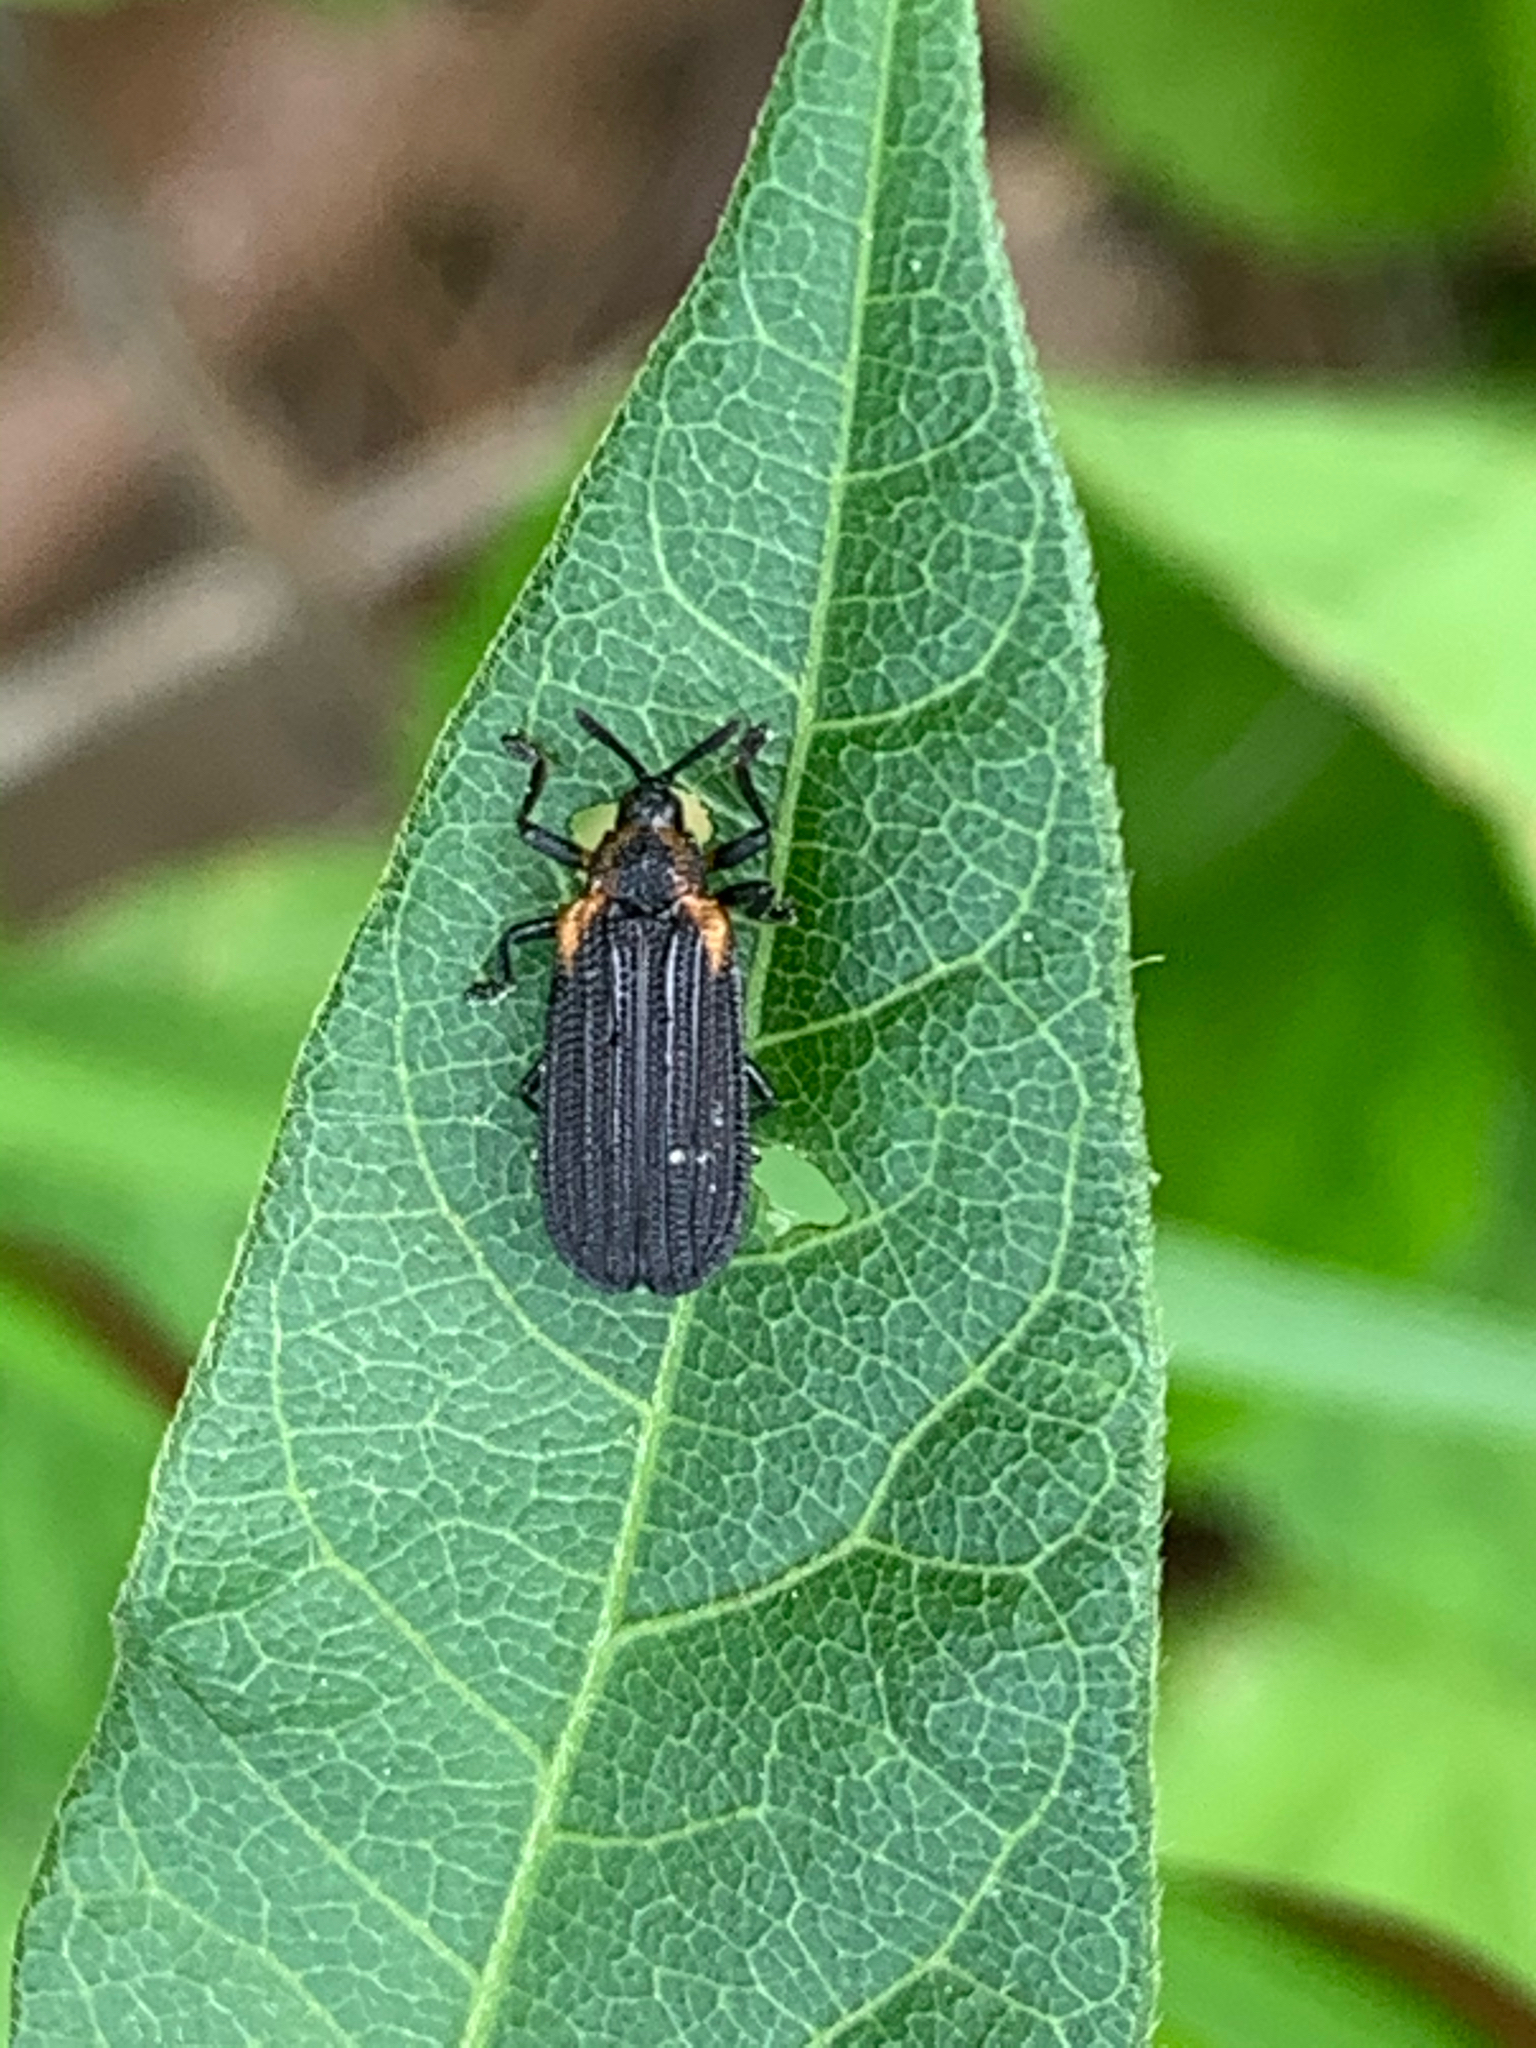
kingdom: Animalia
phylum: Arthropoda
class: Insecta
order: Coleoptera
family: Chrysomelidae
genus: Odontota
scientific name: Odontota scapularis
